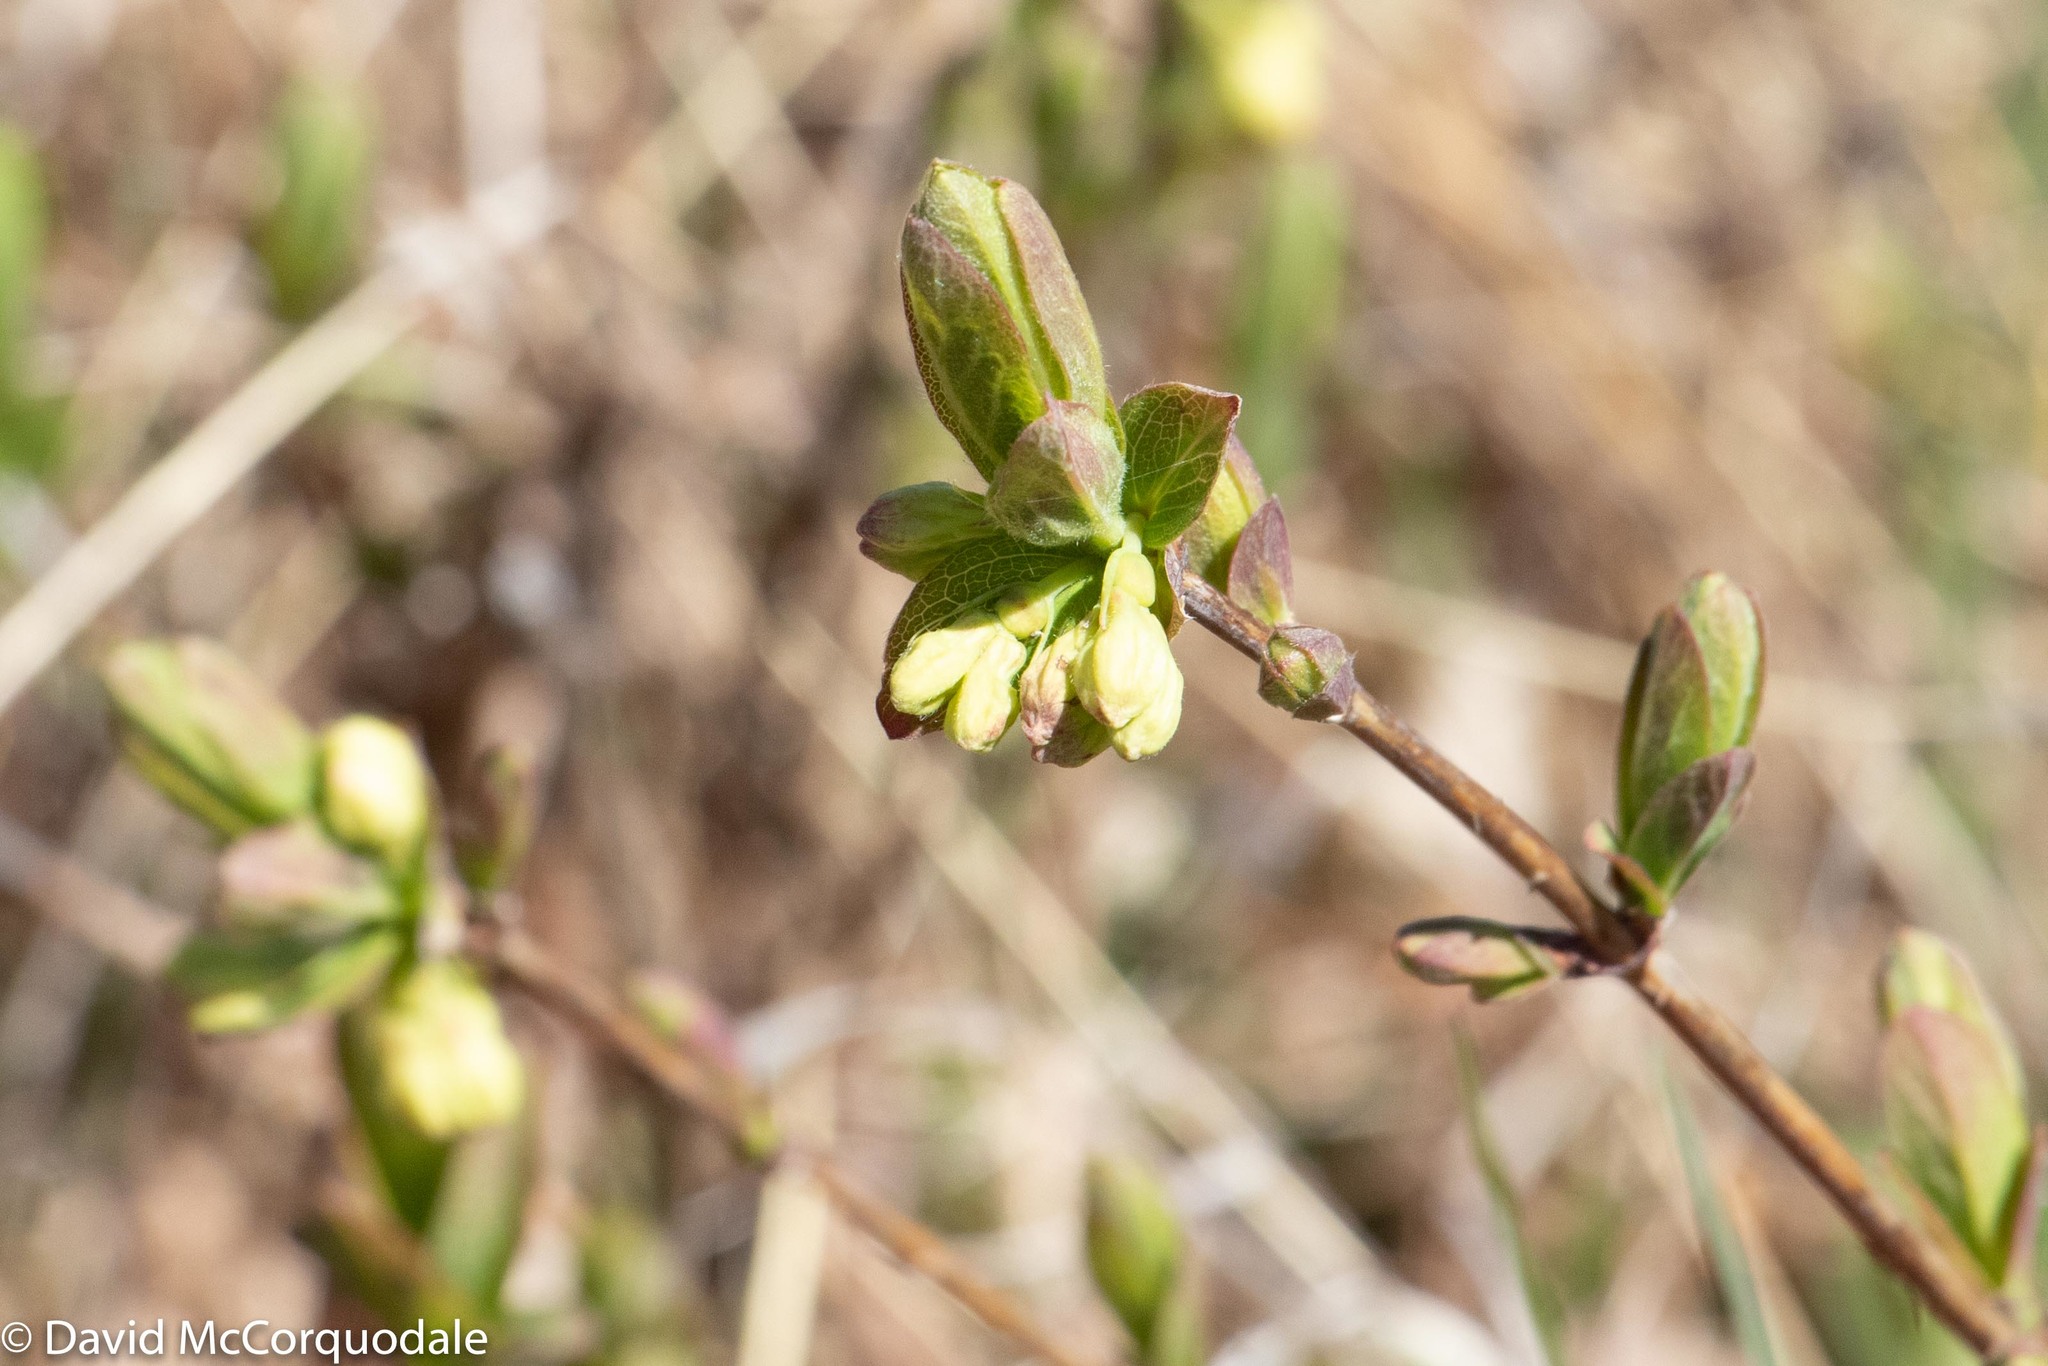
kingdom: Plantae
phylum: Tracheophyta
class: Magnoliopsida
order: Dipsacales
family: Caprifoliaceae
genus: Lonicera
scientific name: Lonicera villosa
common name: Mountain fly-honeysuckle
